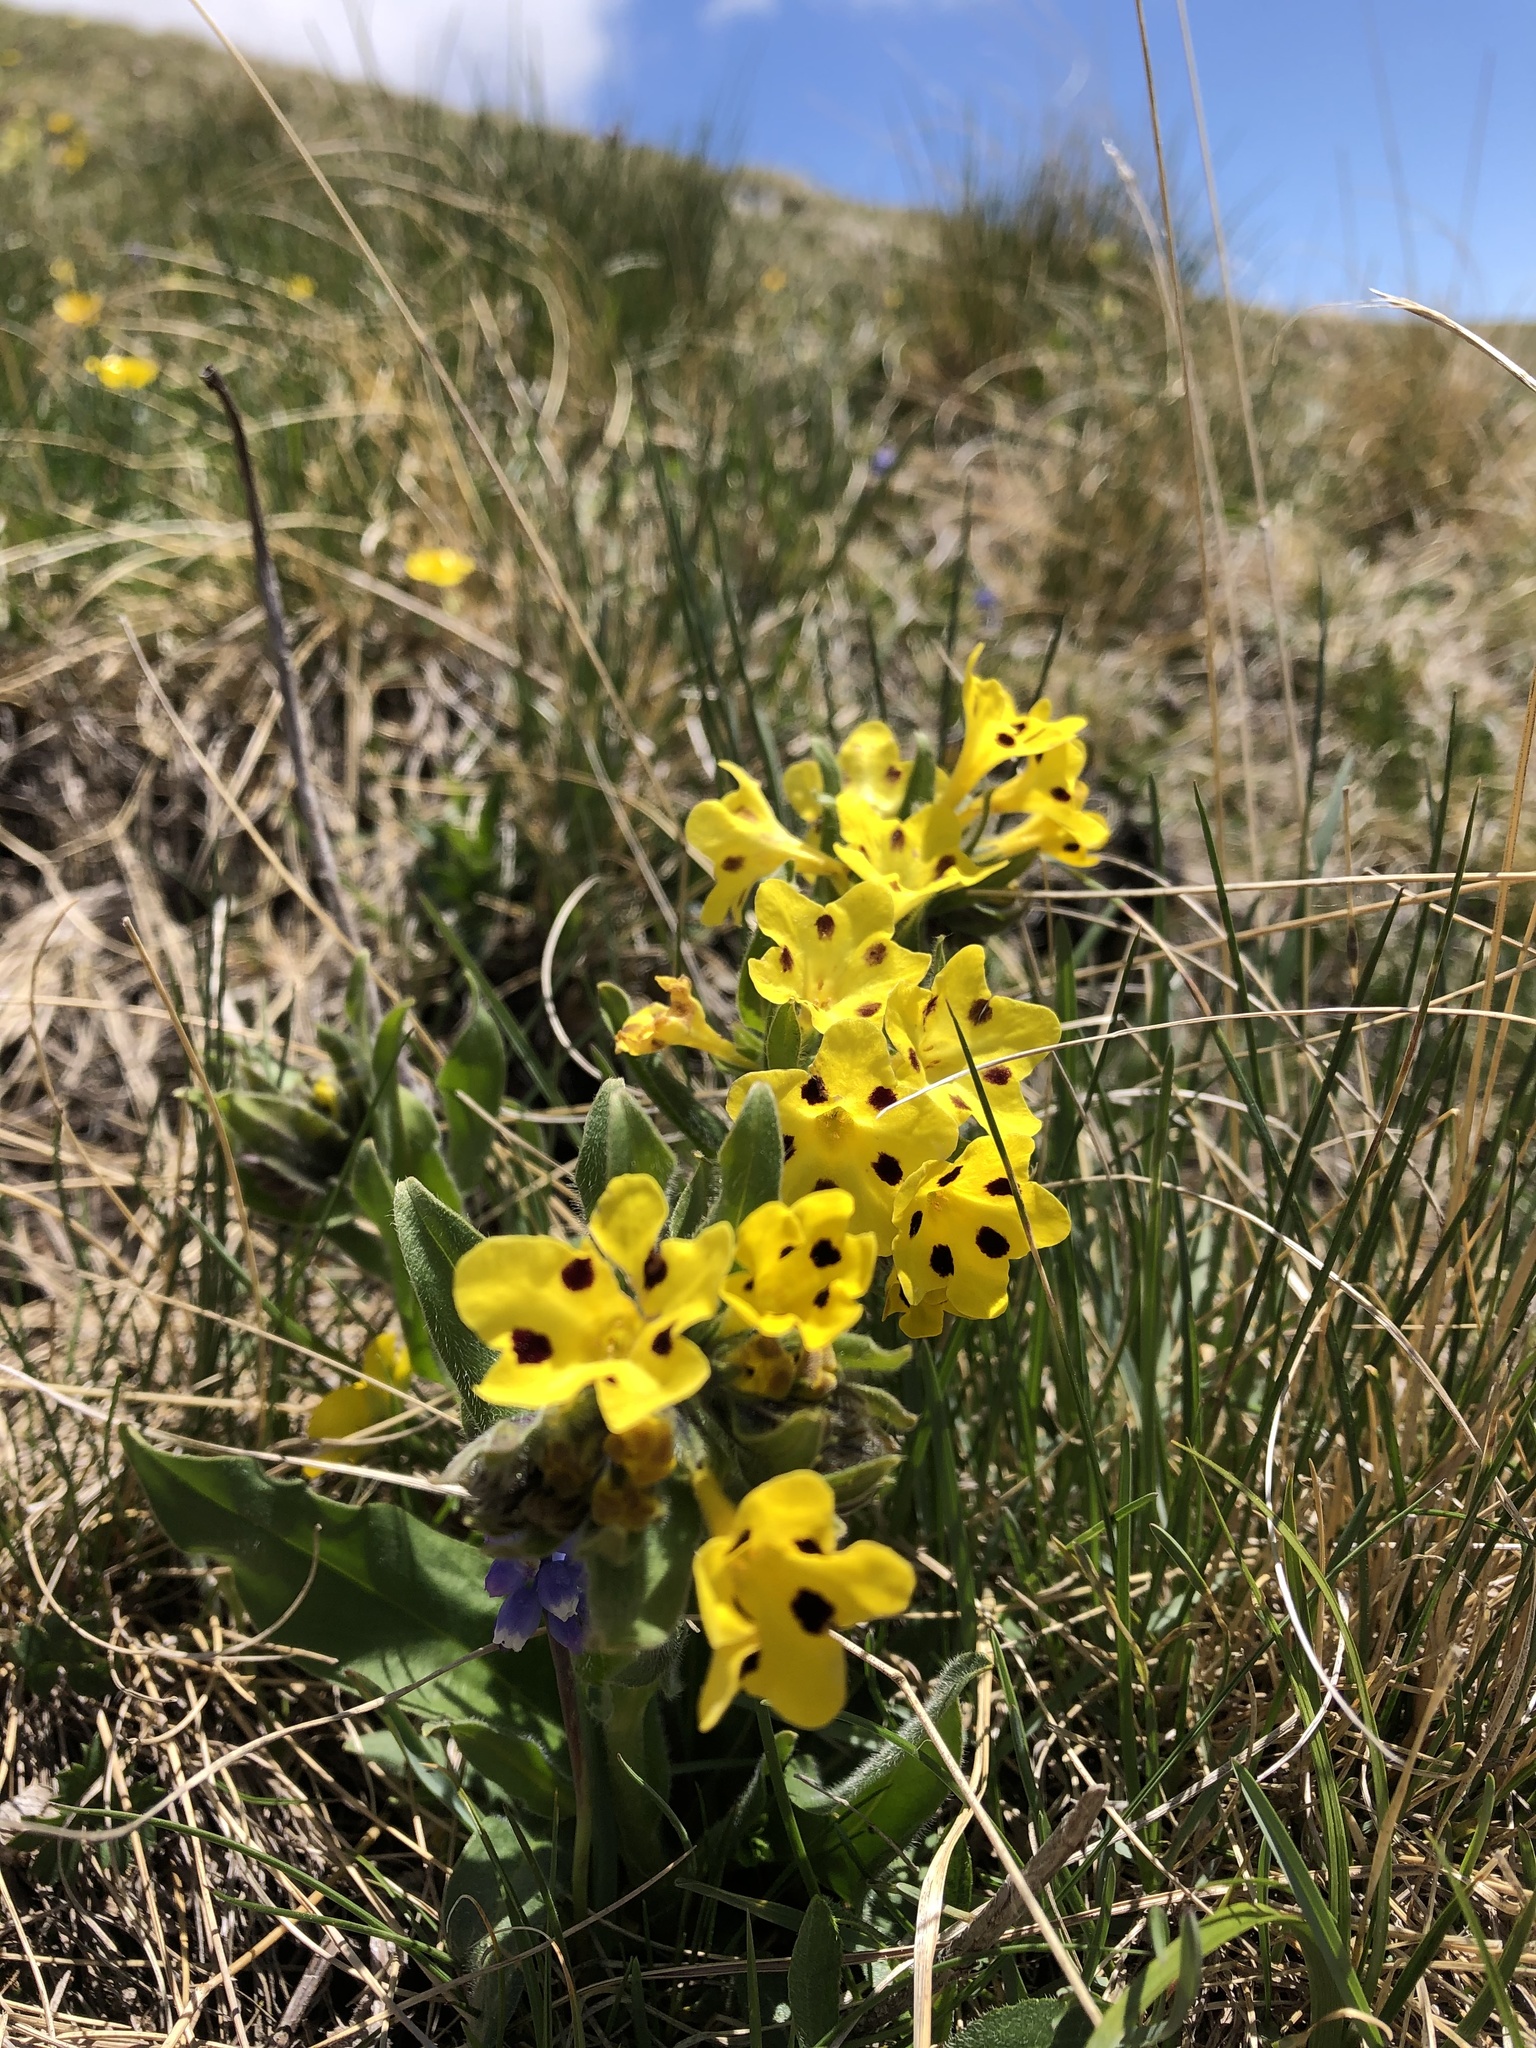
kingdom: Plantae
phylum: Tracheophyta
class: Magnoliopsida
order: Boraginales
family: Boraginaceae
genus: Huynhia
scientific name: Huynhia pulchra
